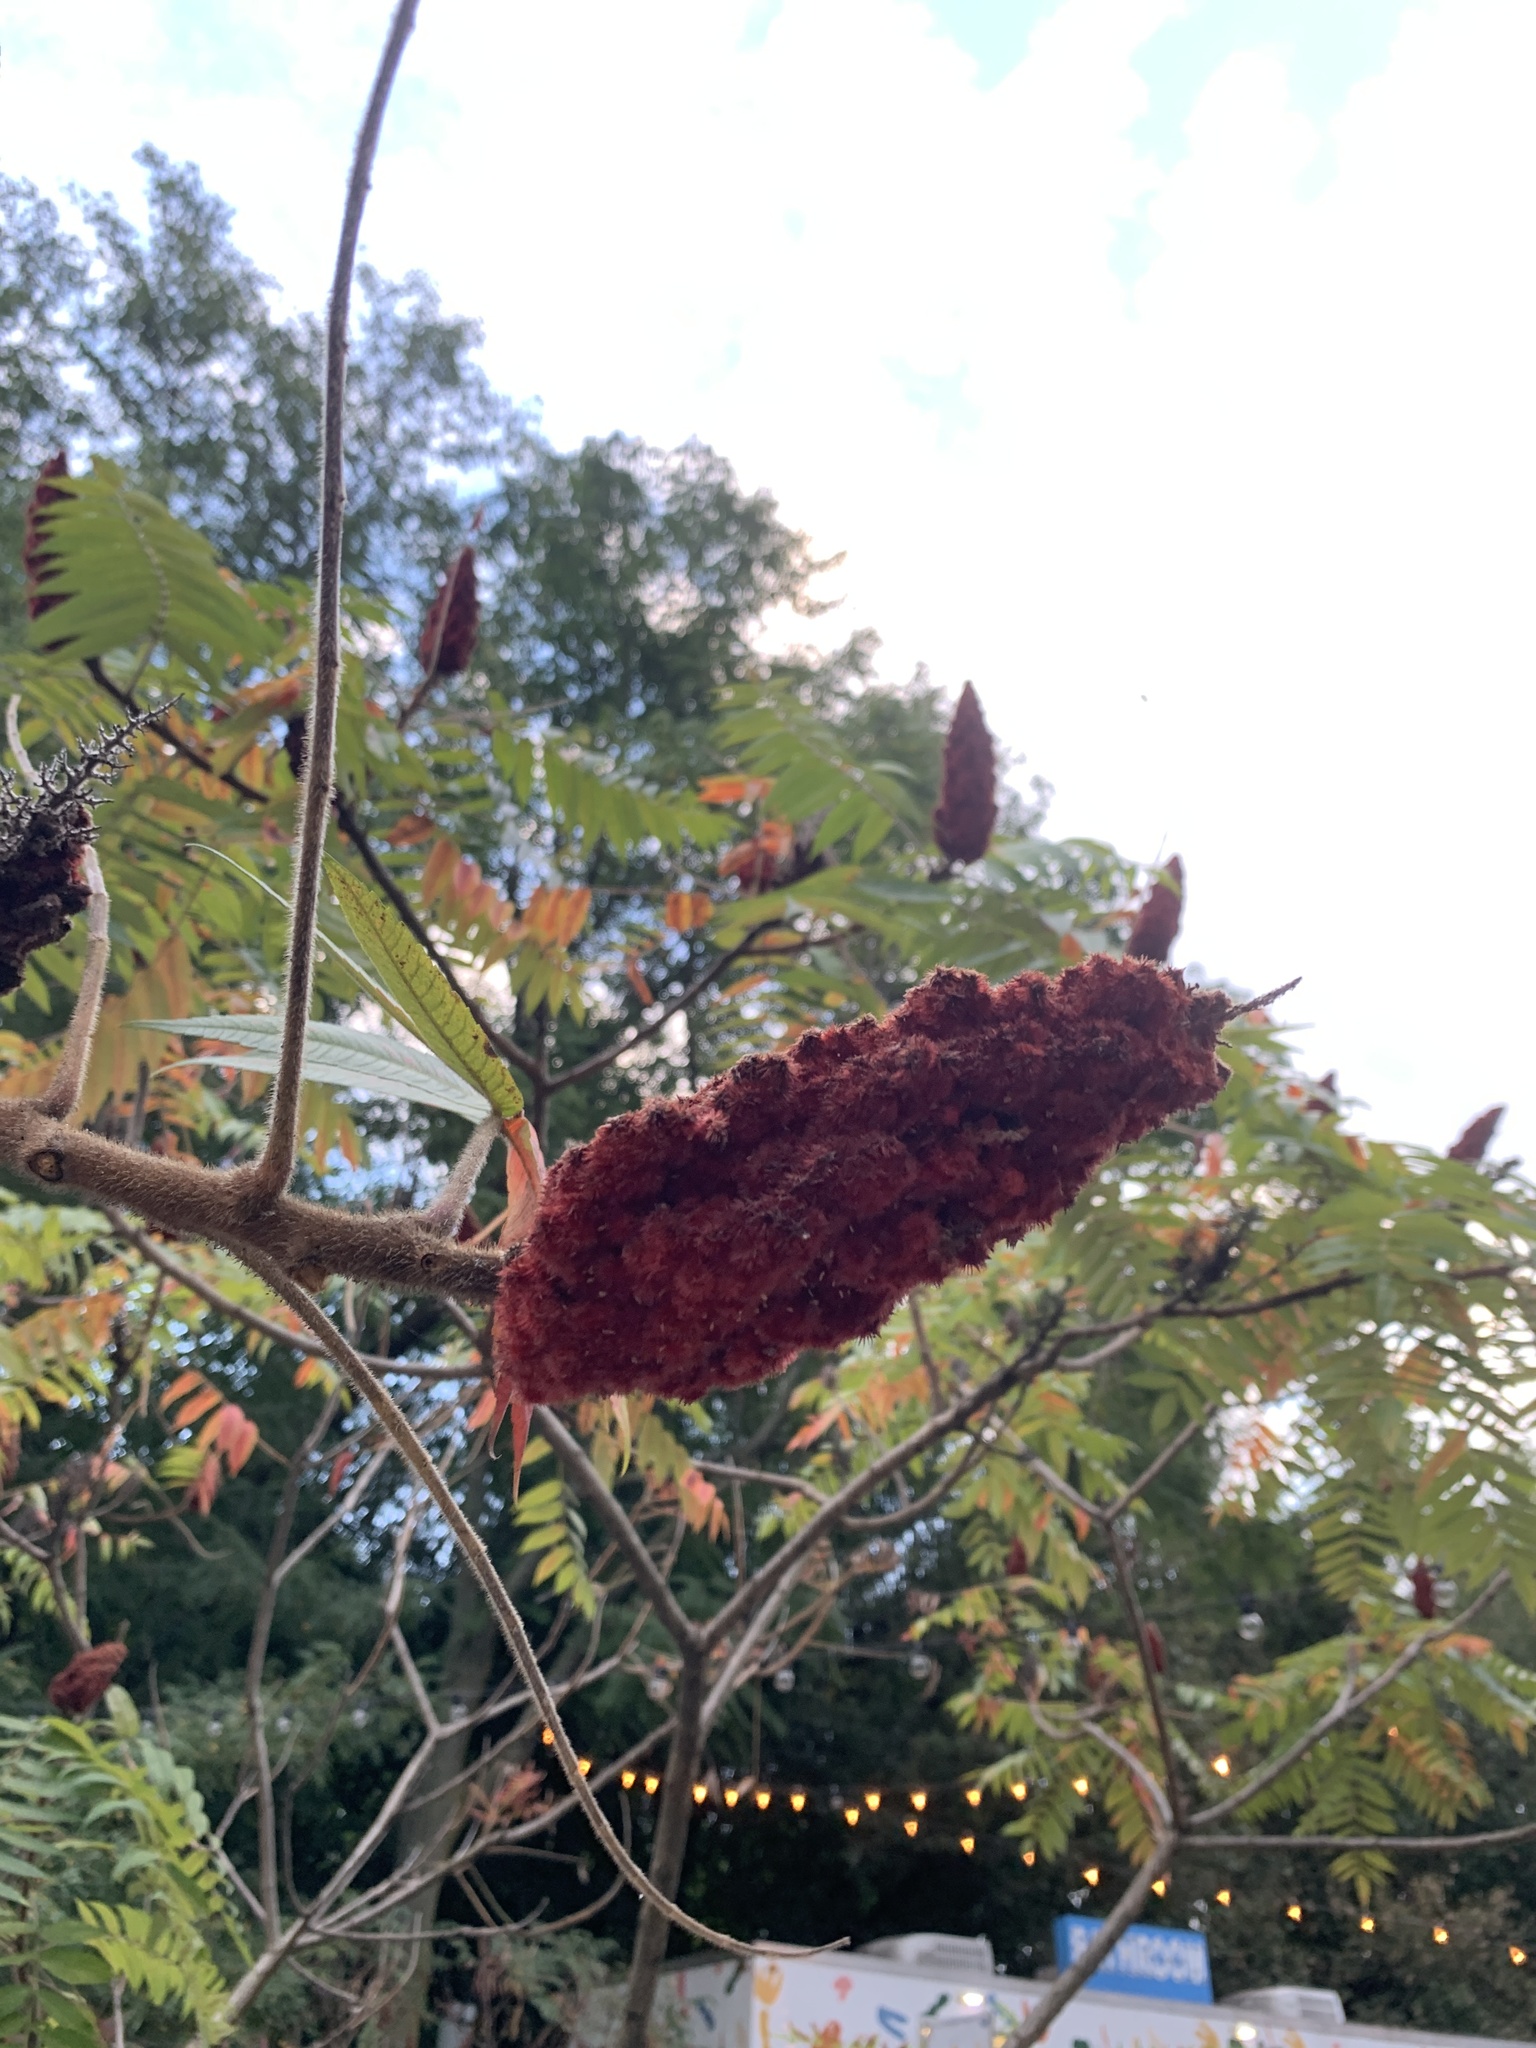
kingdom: Plantae
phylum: Tracheophyta
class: Magnoliopsida
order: Sapindales
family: Anacardiaceae
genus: Rhus
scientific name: Rhus typhina
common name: Staghorn sumac
